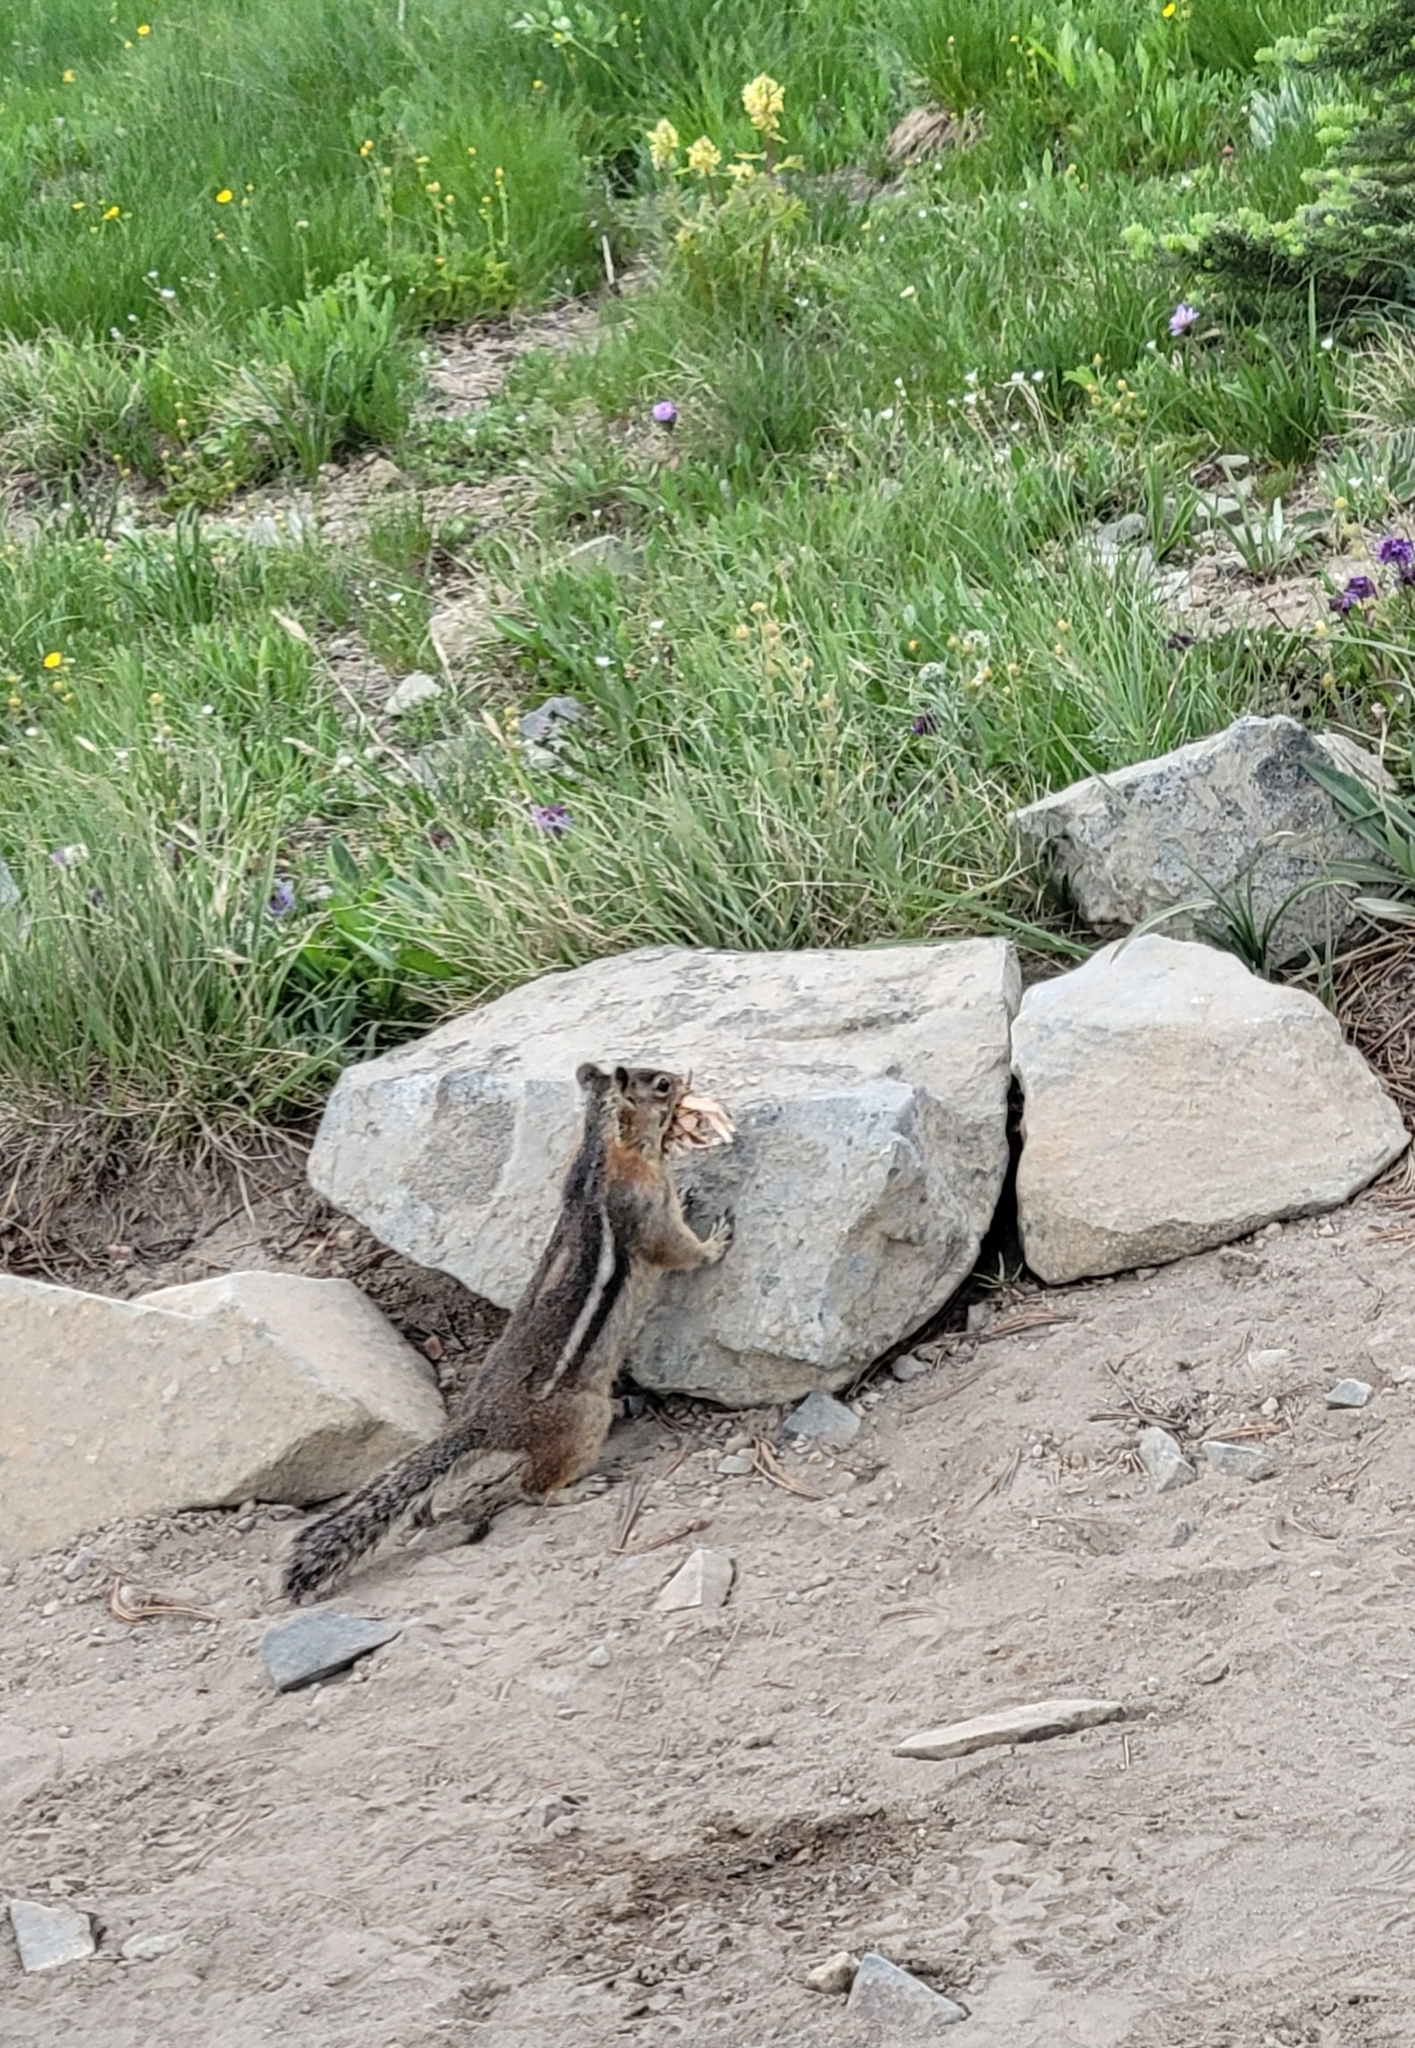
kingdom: Animalia
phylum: Chordata
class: Mammalia
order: Rodentia
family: Sciuridae
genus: Callospermophilus
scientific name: Callospermophilus saturatus
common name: Cascade golden-mantled ground squirrel
